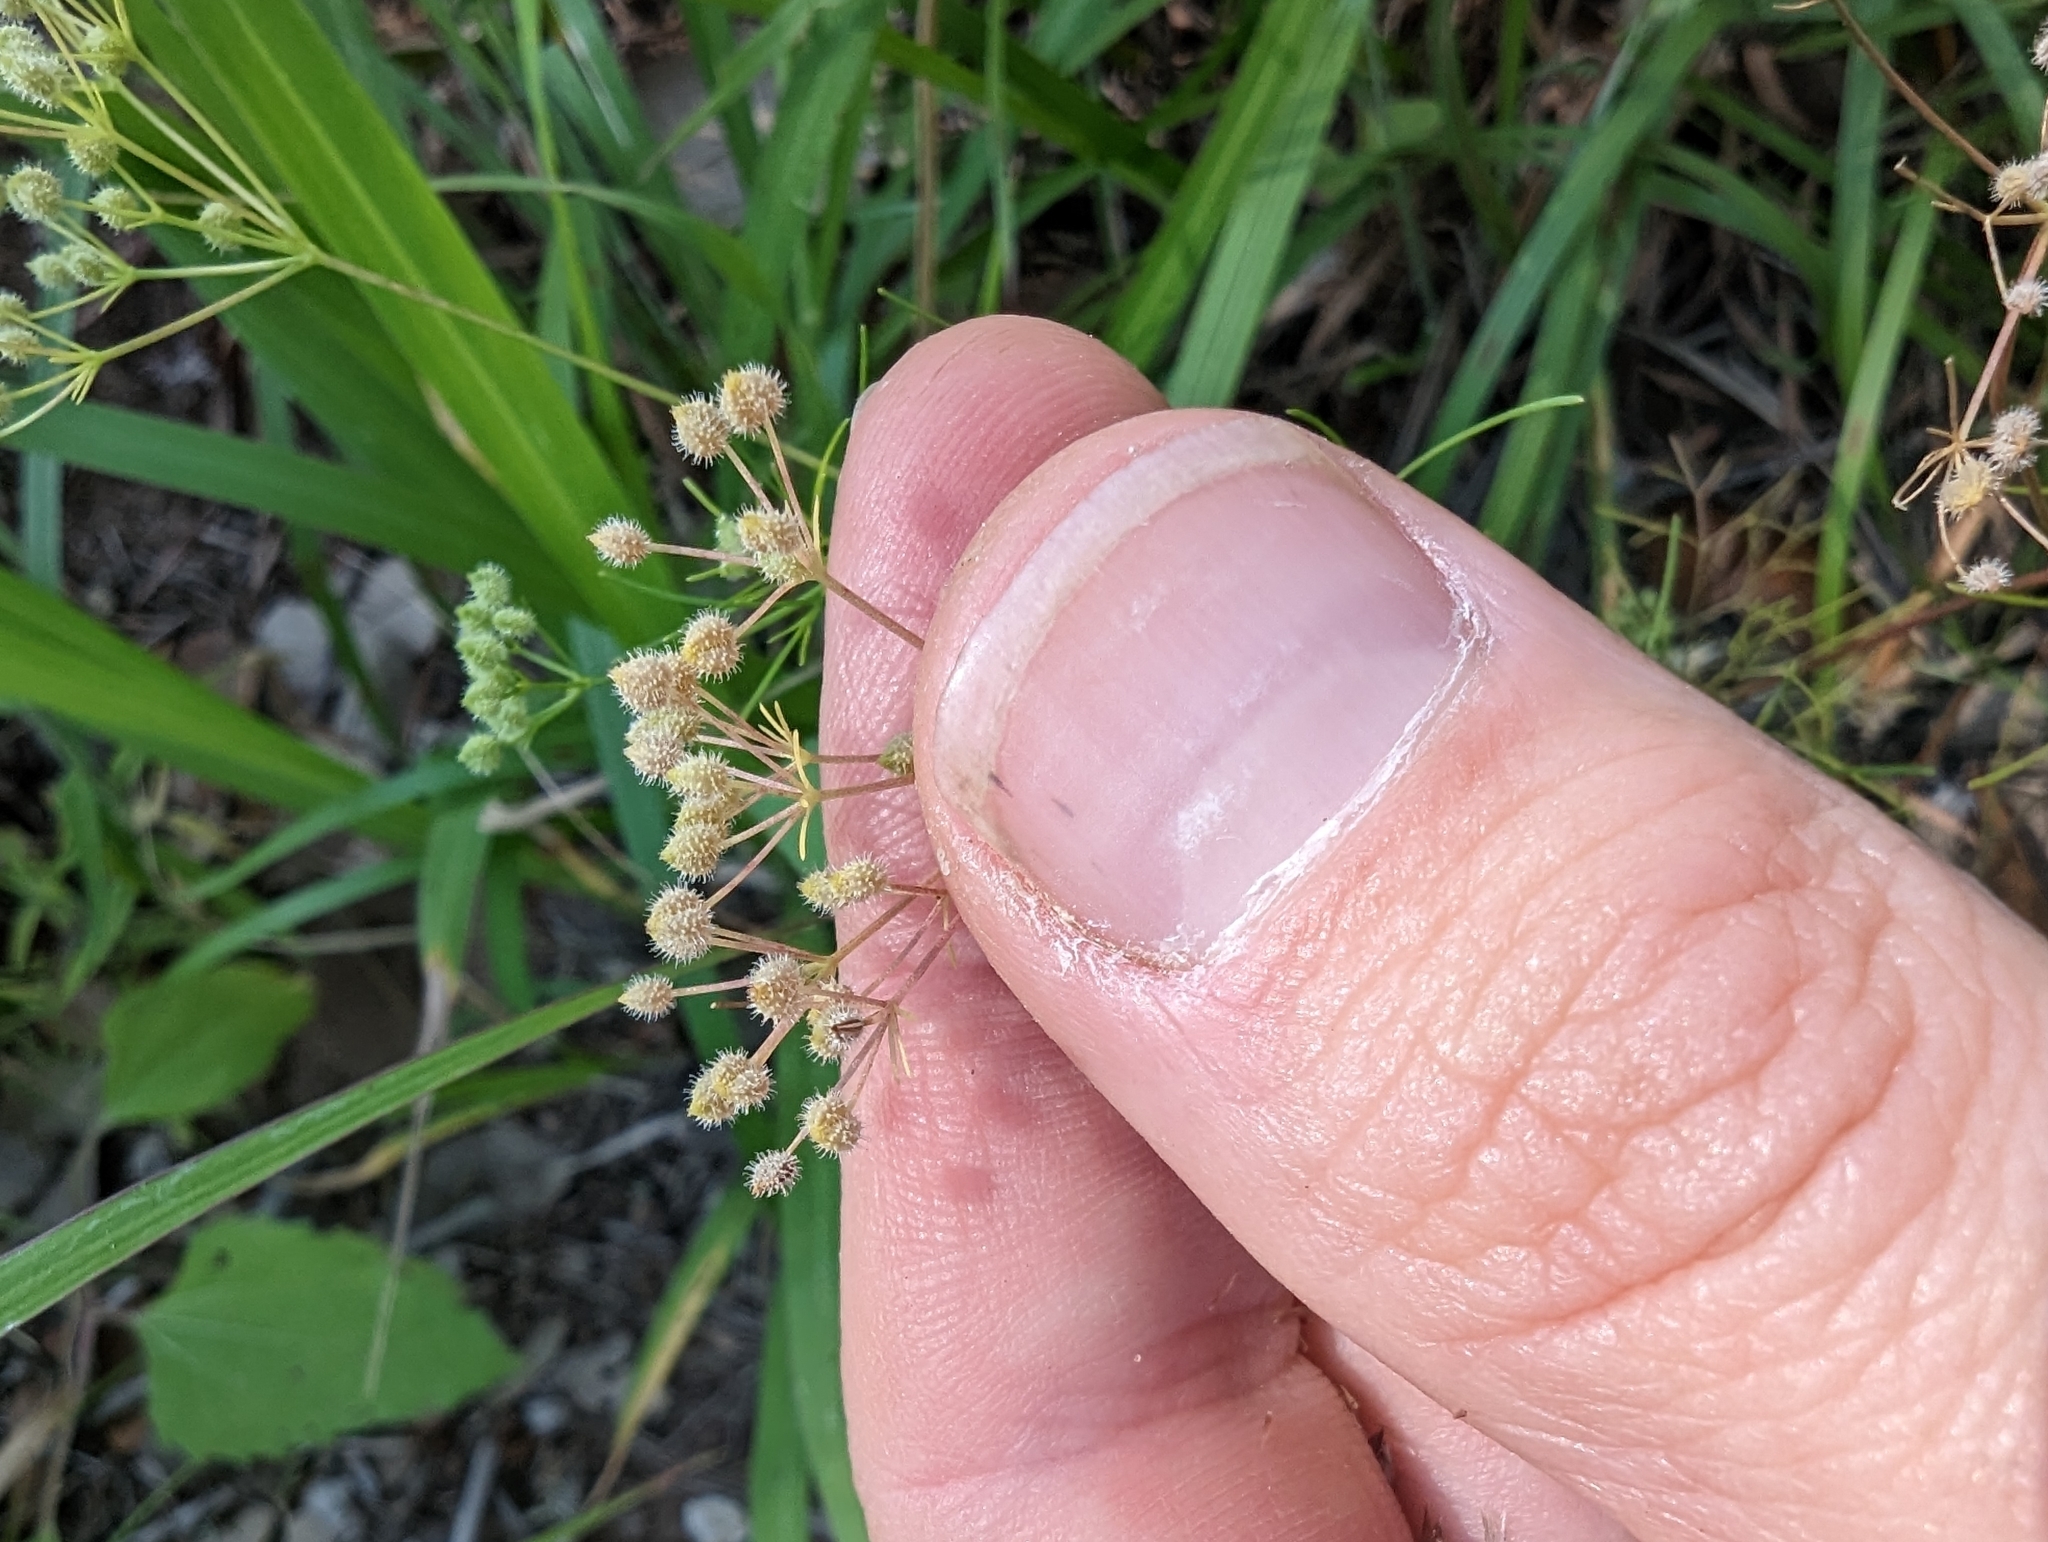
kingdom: Plantae
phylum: Tracheophyta
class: Magnoliopsida
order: Apiales
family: Apiaceae
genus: Spermolepis
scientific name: Spermolepis echinata
